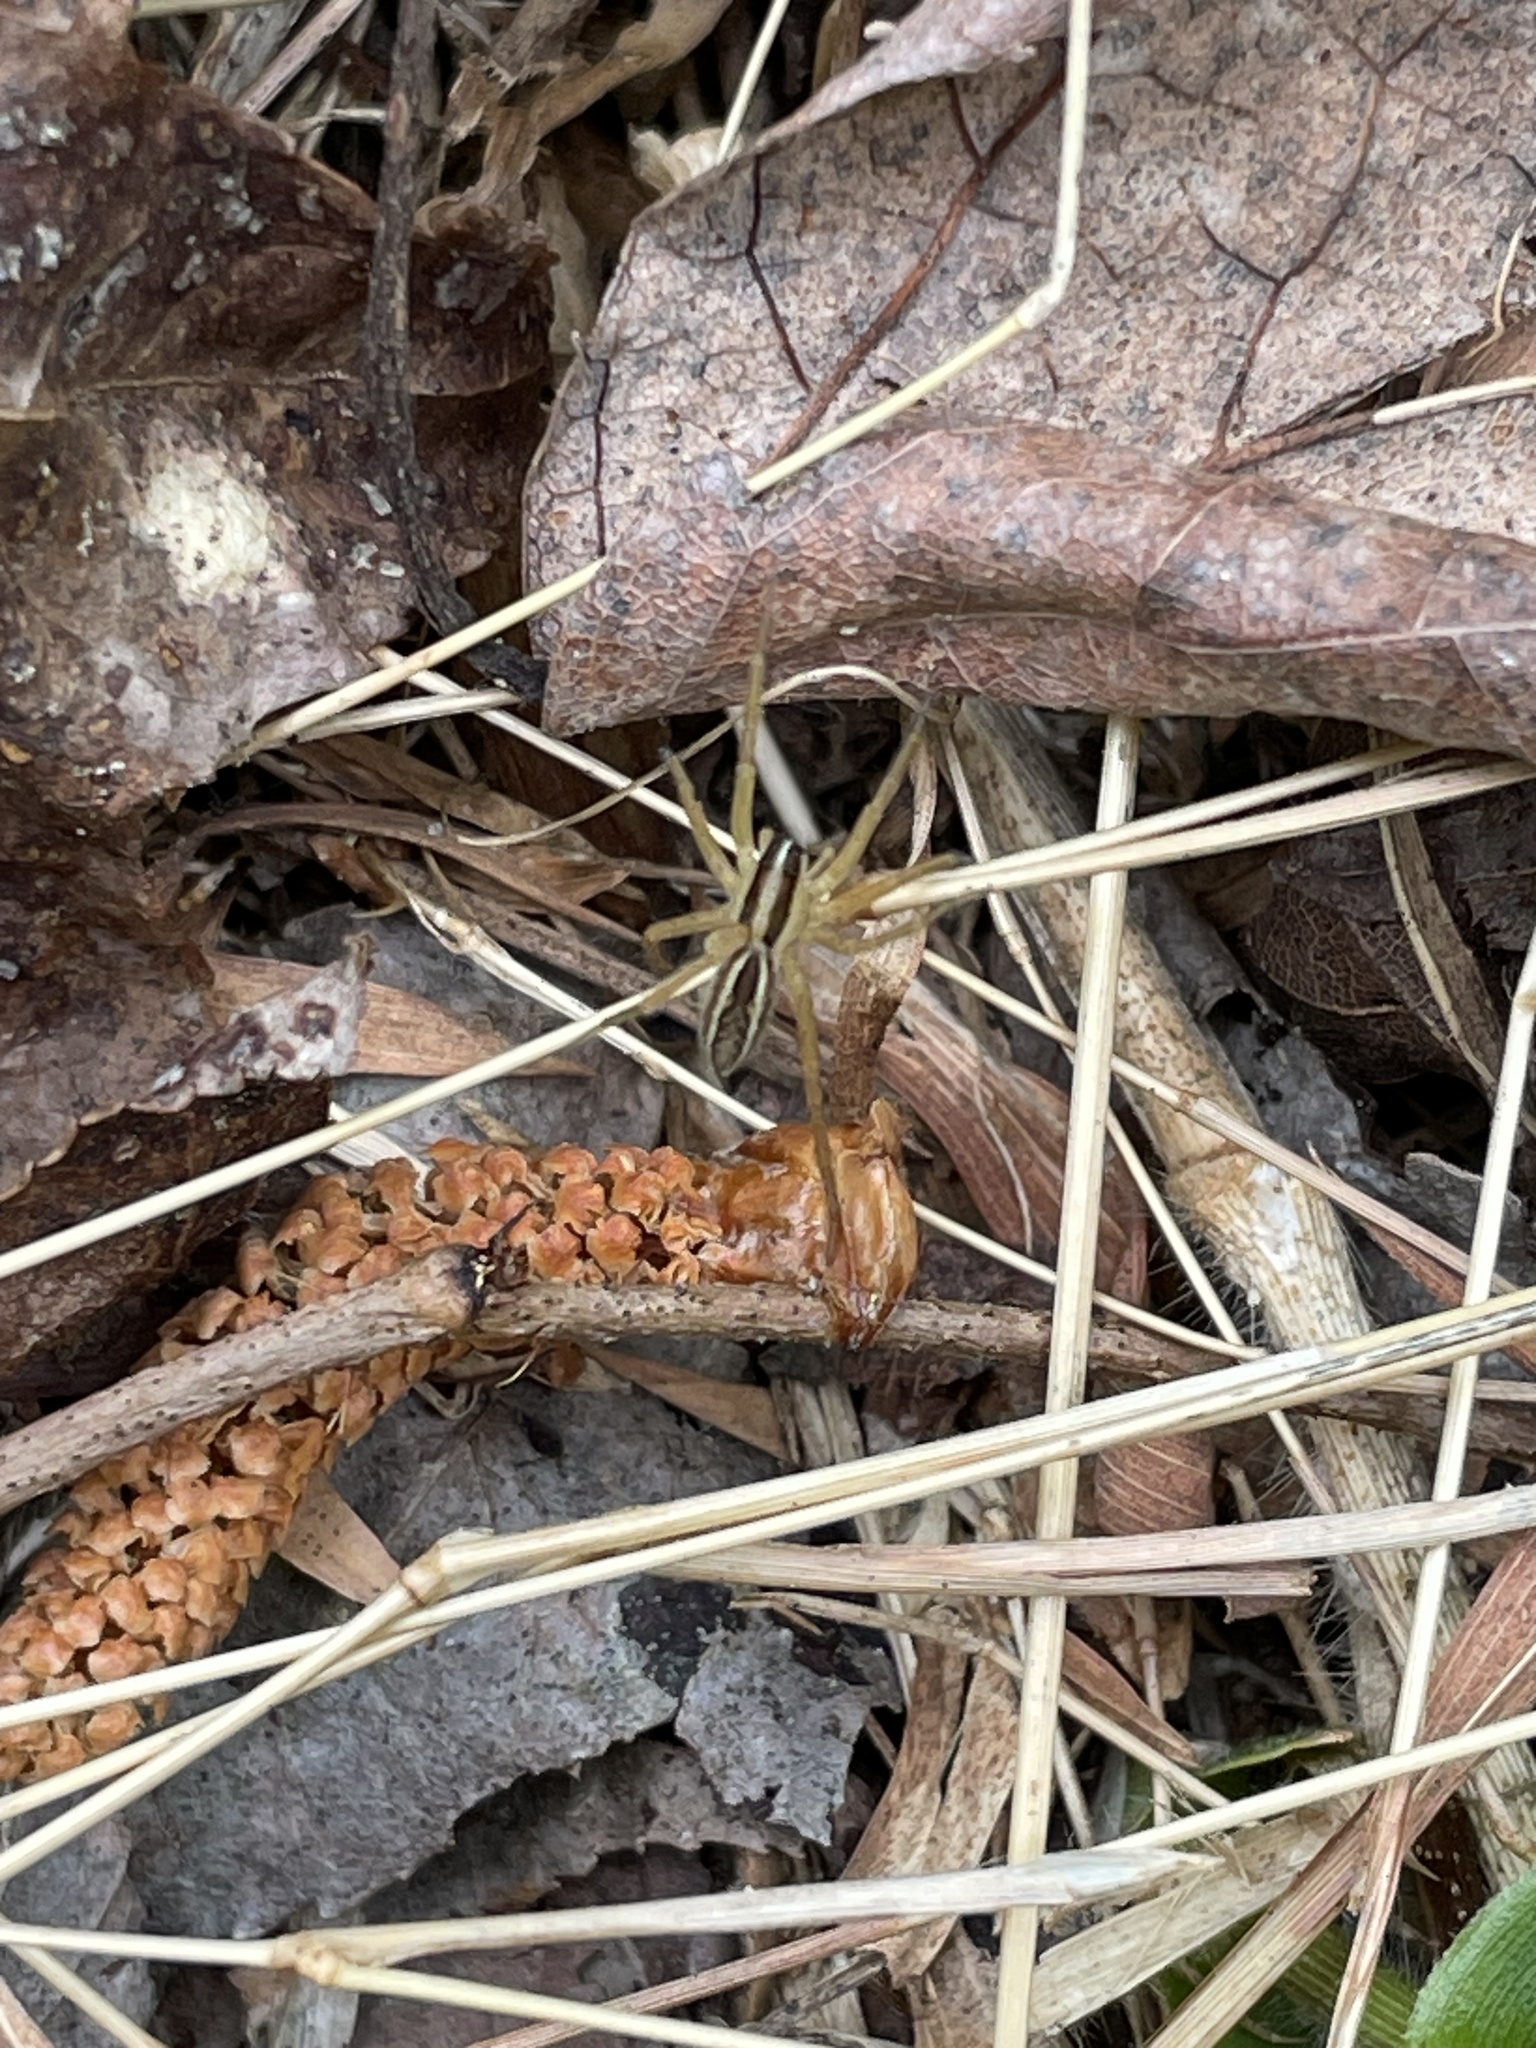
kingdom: Animalia
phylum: Arthropoda
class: Arachnida
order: Araneae
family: Lycosidae
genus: Rabidosa
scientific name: Rabidosa rabida
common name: Rabid wolf spider
